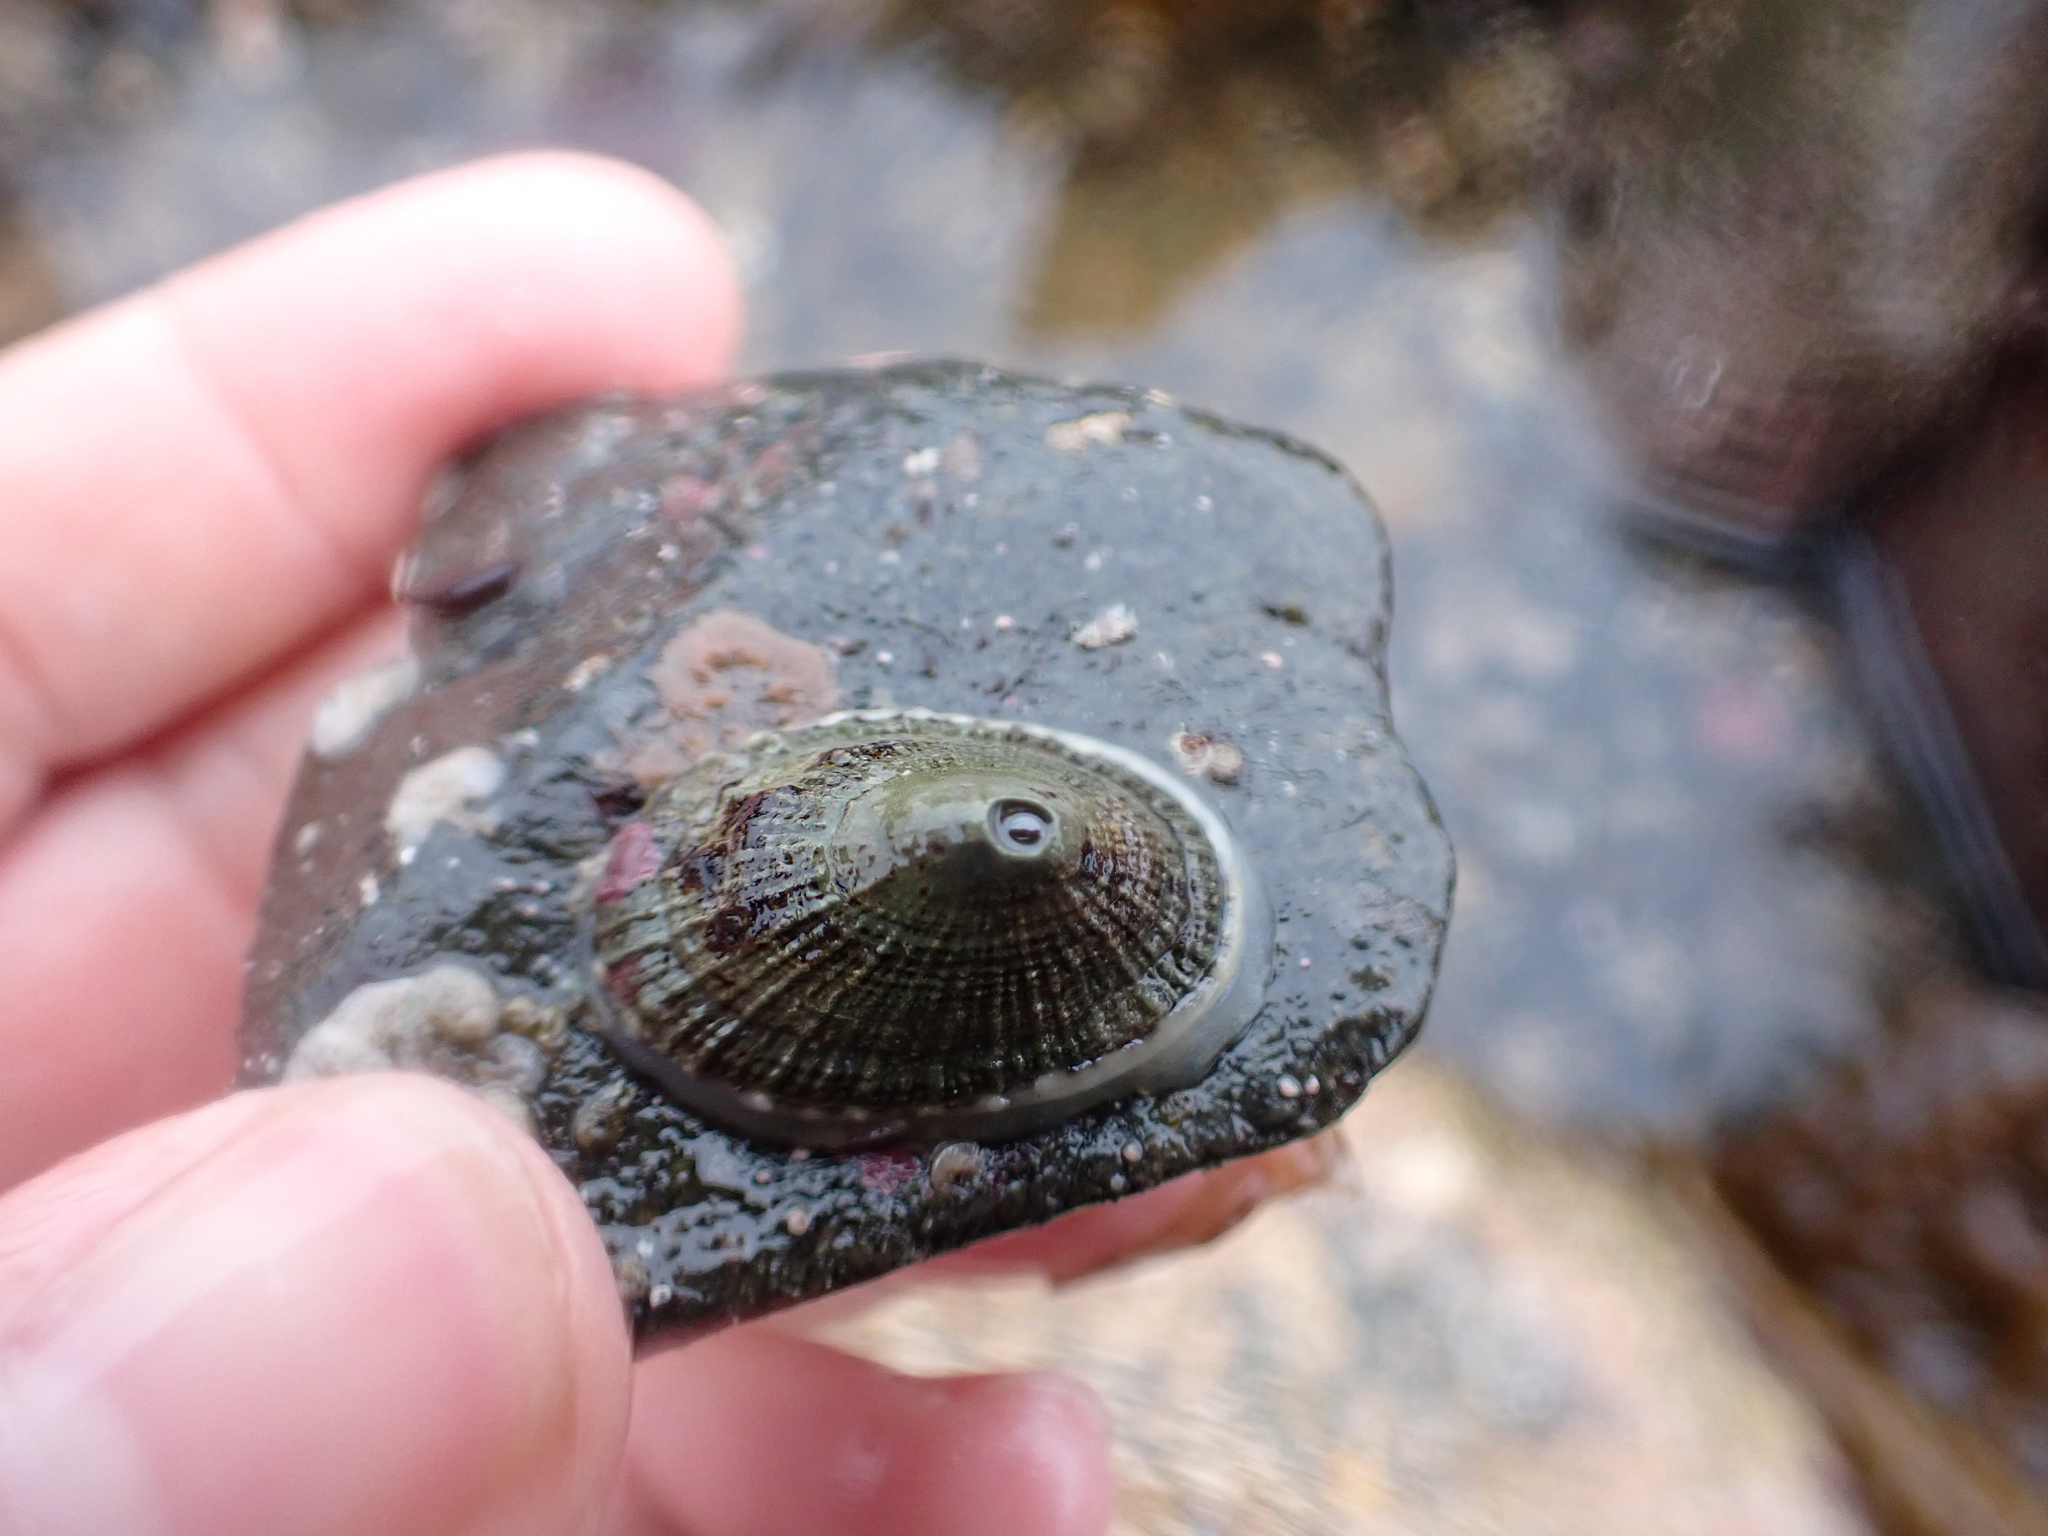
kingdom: Animalia
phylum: Mollusca
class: Gastropoda
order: Lepetellida
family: Fissurellidae
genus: Diodora
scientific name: Diodora aspera
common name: Rough keyhole limpet
